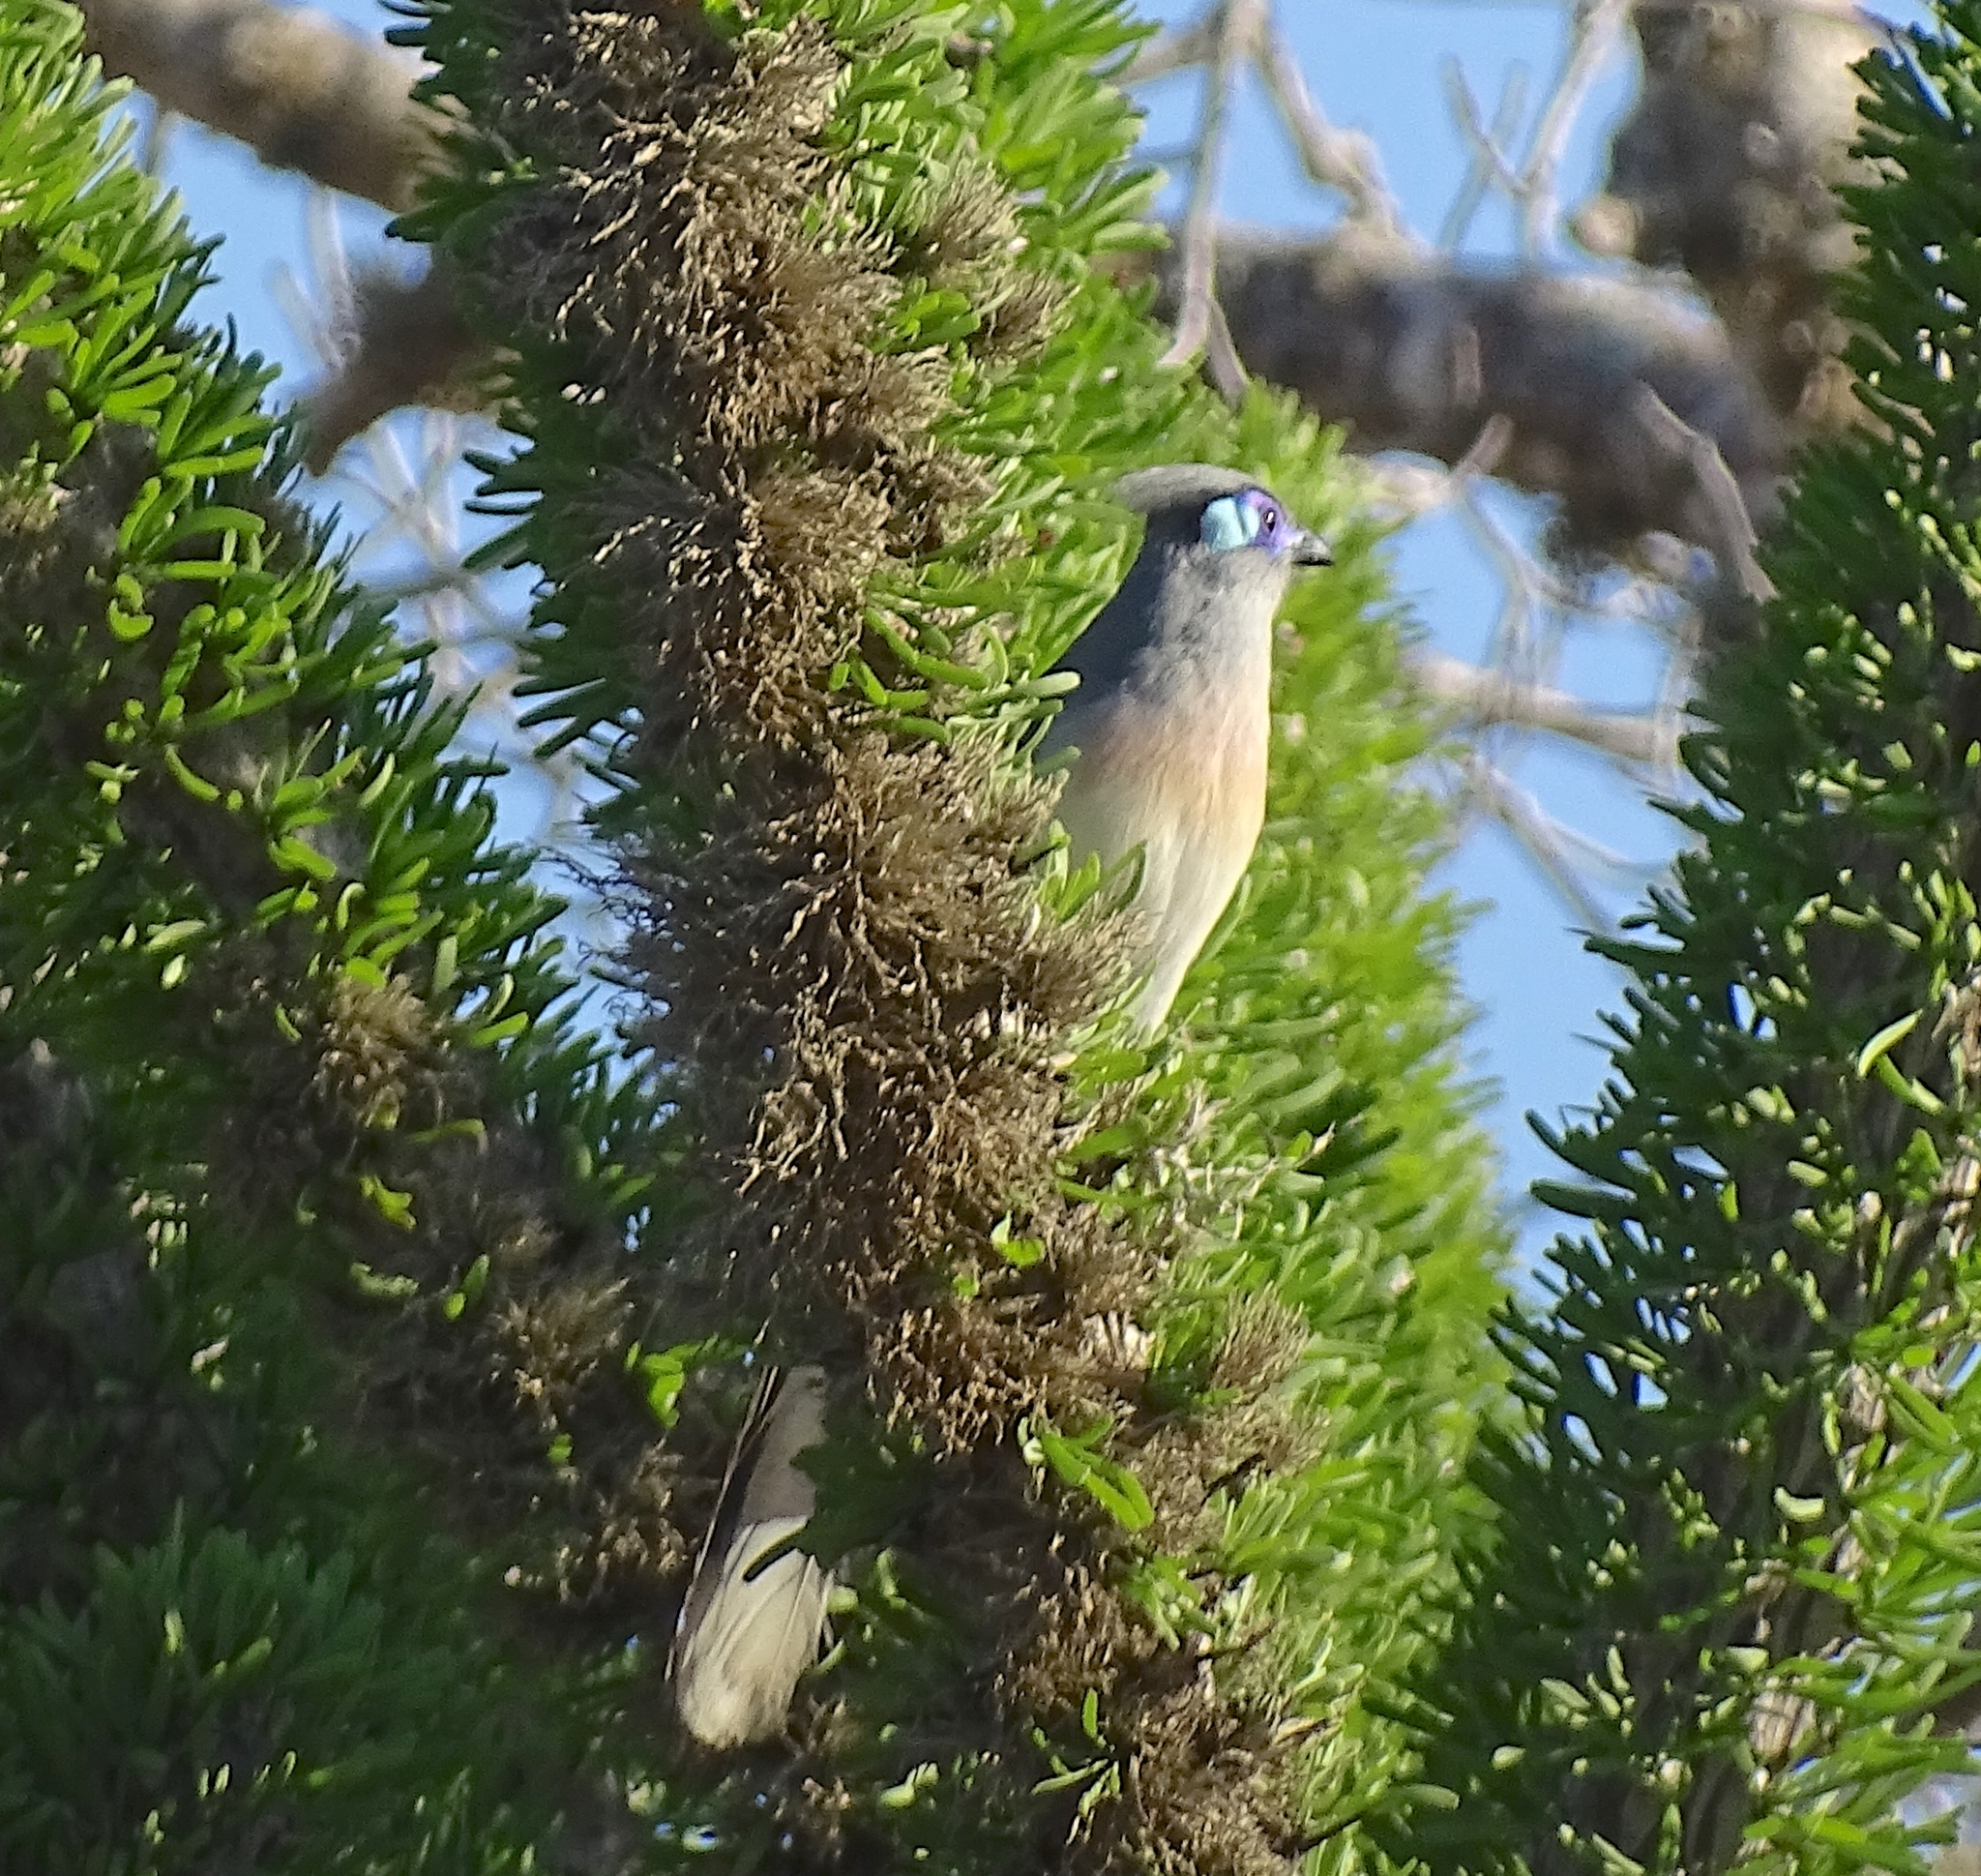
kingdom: Animalia
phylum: Chordata
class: Aves
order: Cuculiformes
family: Cuculidae
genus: Coua
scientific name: Coua cristata
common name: Crested coua
